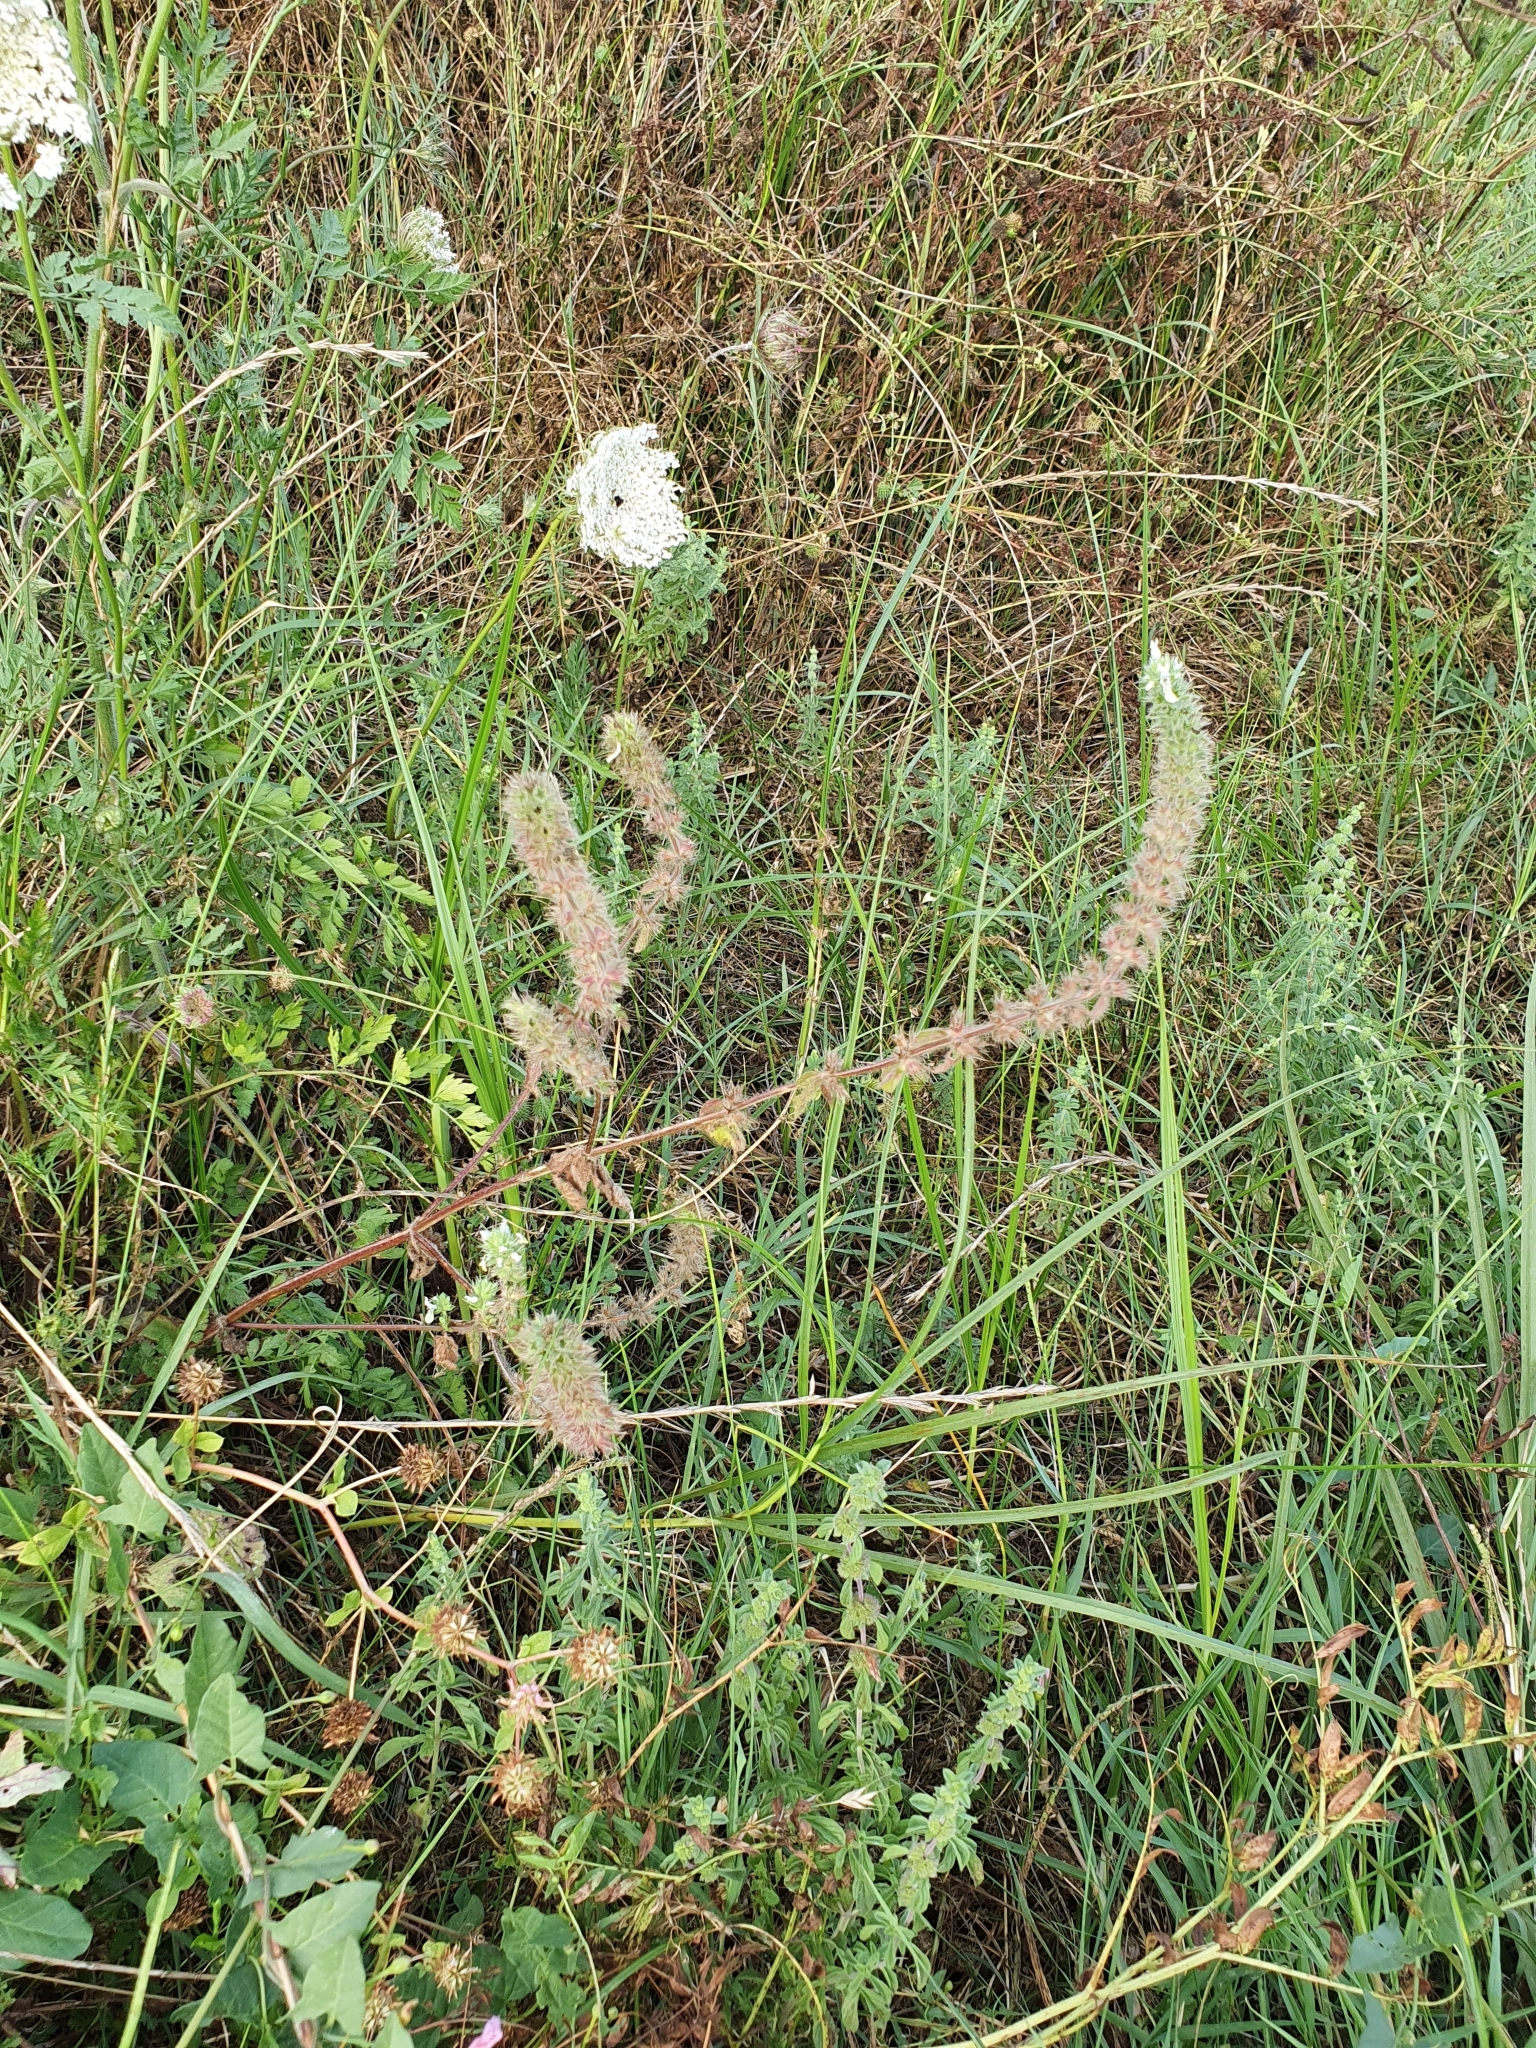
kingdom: Plantae
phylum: Tracheophyta
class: Magnoliopsida
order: Lamiales
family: Lamiaceae
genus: Stachys
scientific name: Stachys ocymastrum
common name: Italian hedgenettle
